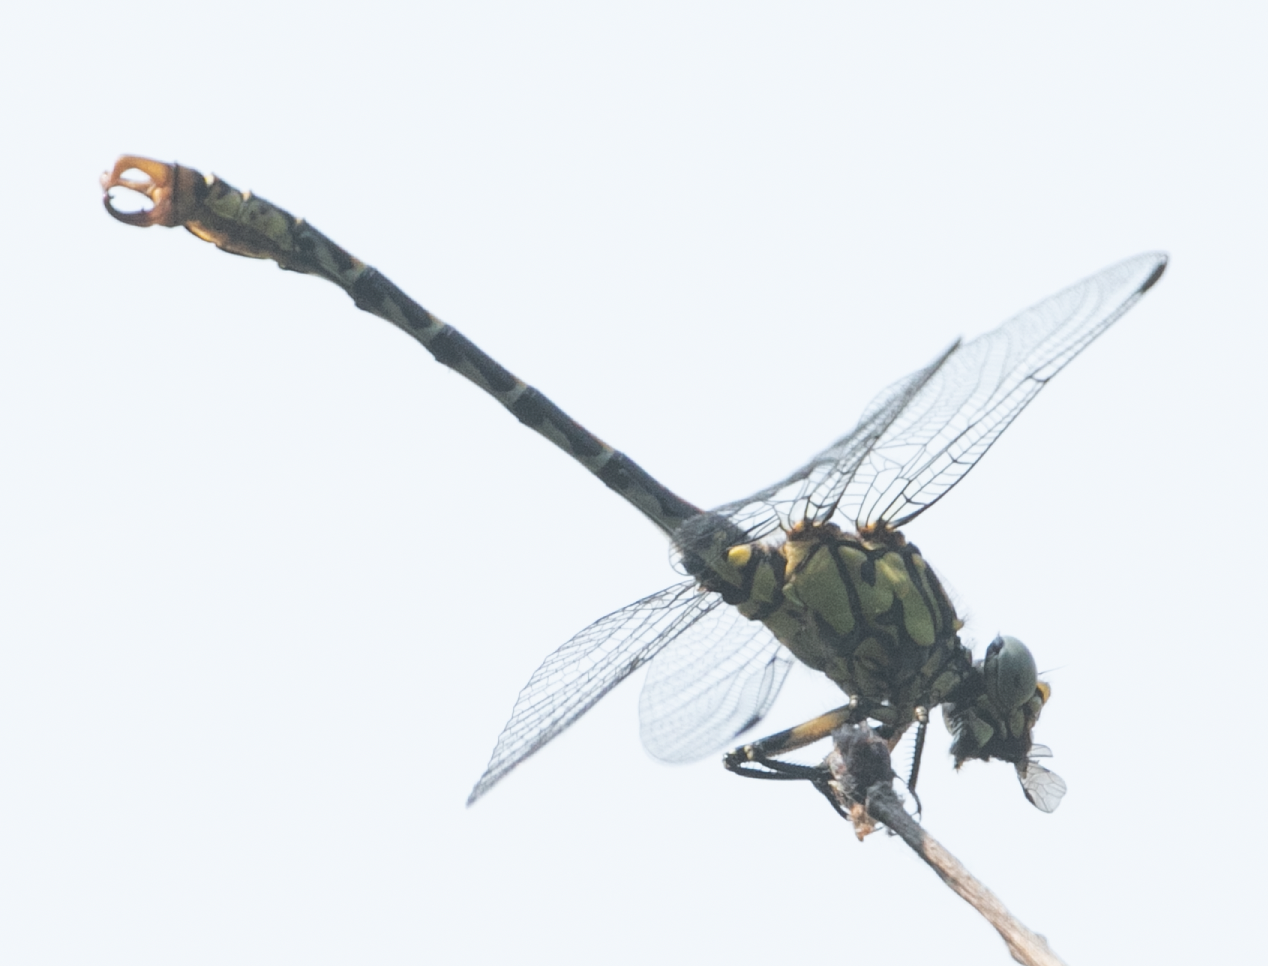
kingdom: Animalia
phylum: Arthropoda
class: Insecta
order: Odonata
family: Gomphidae
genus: Onychogomphus
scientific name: Onychogomphus forcipatus
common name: Small pincertail
